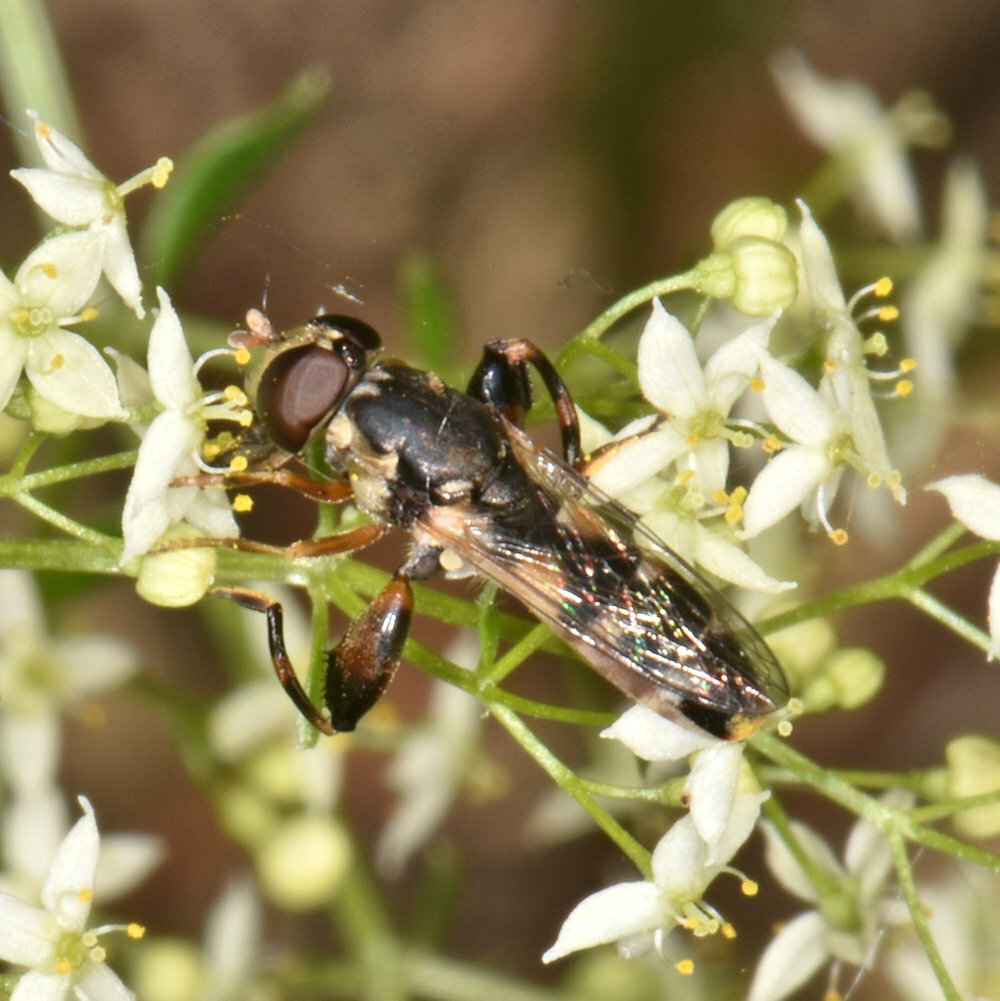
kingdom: Animalia
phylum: Arthropoda
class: Insecta
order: Diptera
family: Syrphidae
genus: Syritta
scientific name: Syritta pipiens
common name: Hover fly
